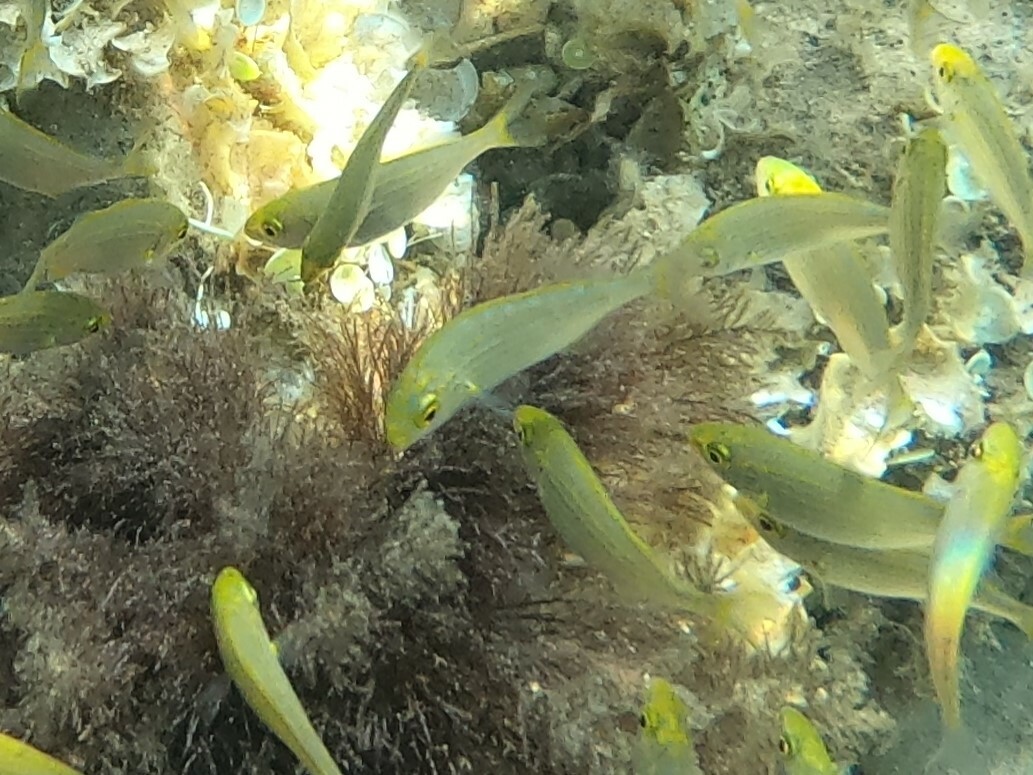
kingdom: Animalia
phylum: Chordata
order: Perciformes
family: Sparidae
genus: Sarpa
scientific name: Sarpa salpa
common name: Salema
